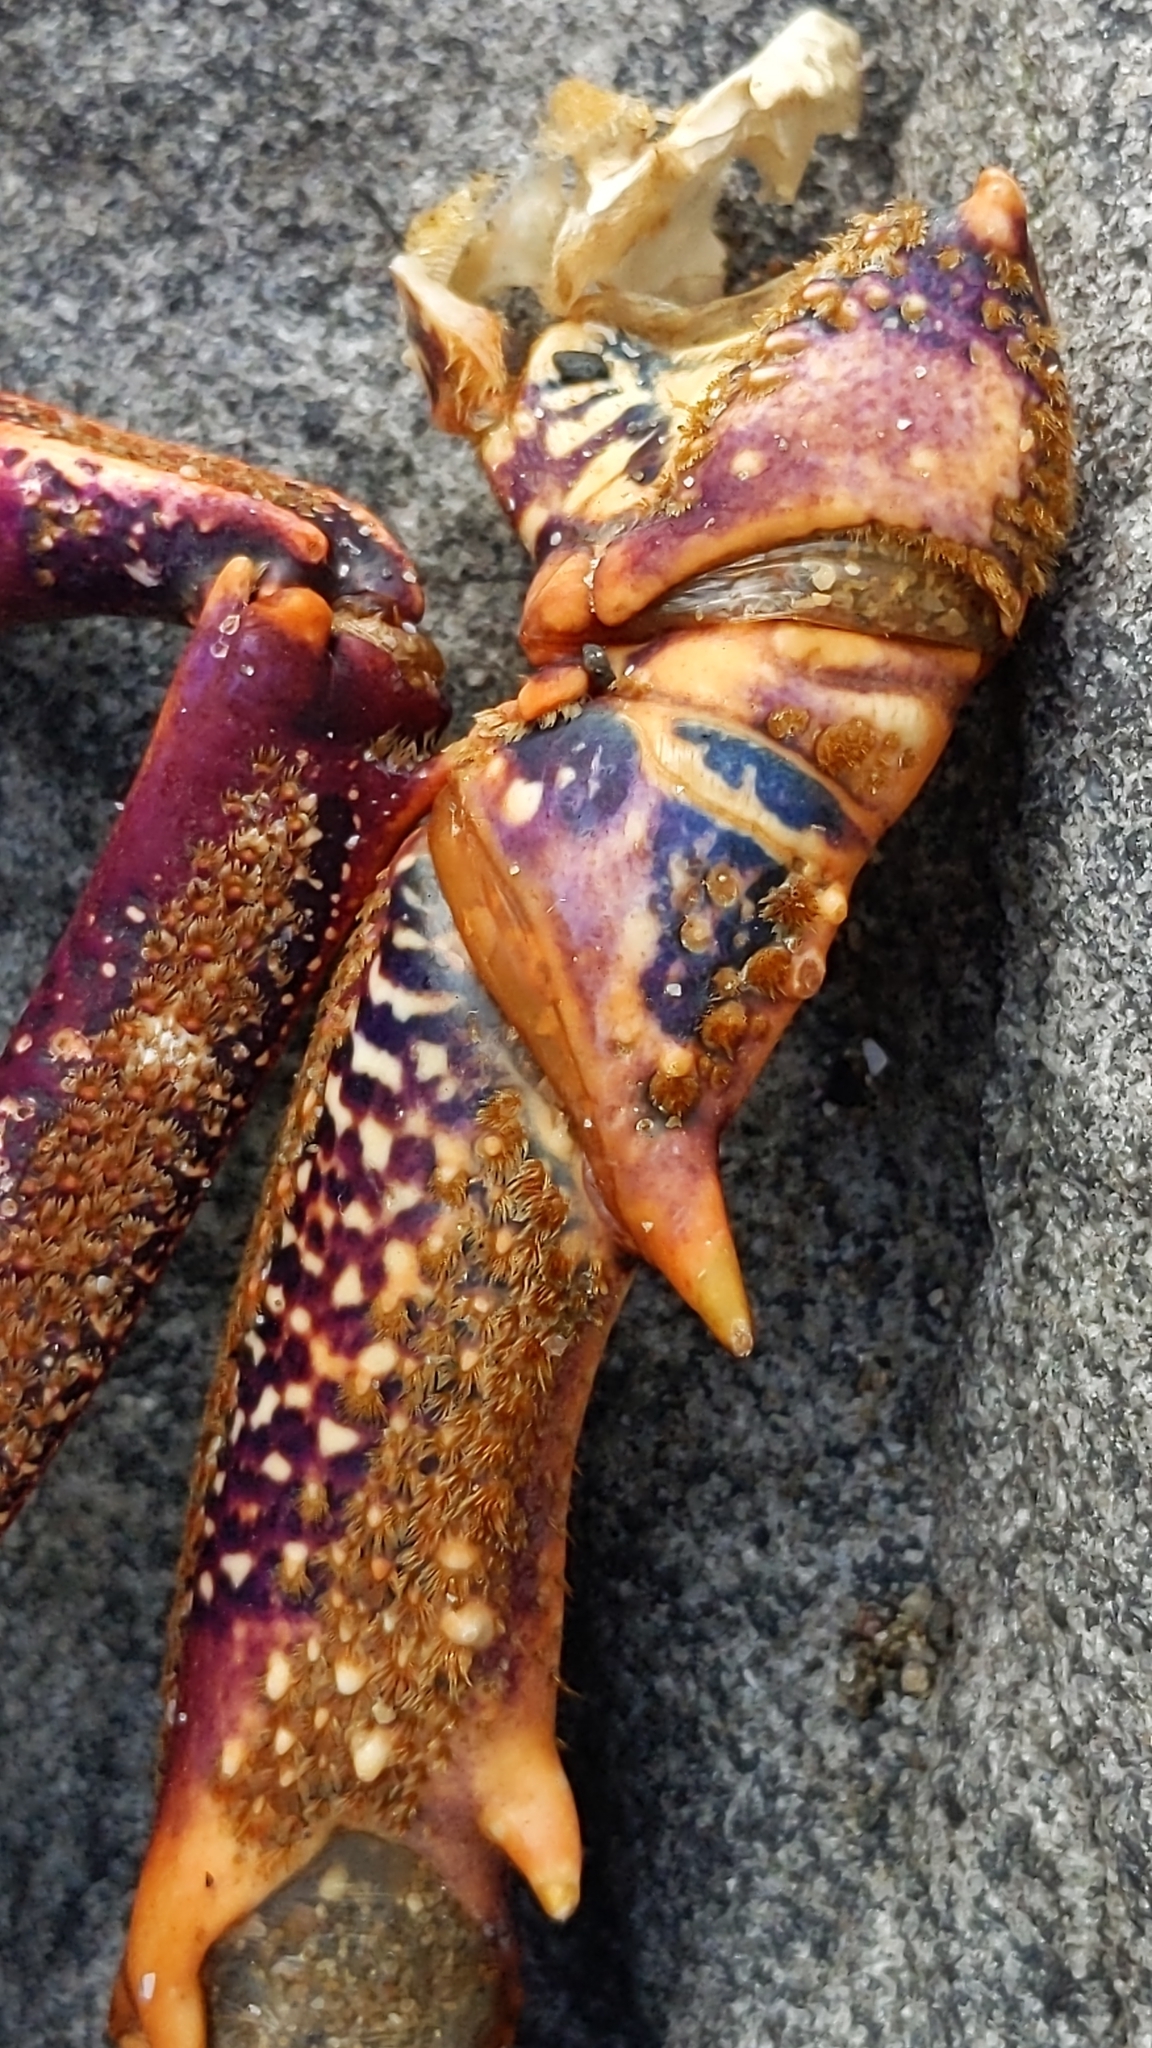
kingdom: Animalia
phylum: Arthropoda
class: Malacostraca
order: Decapoda
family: Palinuridae
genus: Jasus
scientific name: Jasus edwardsii
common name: Red rock lobster
